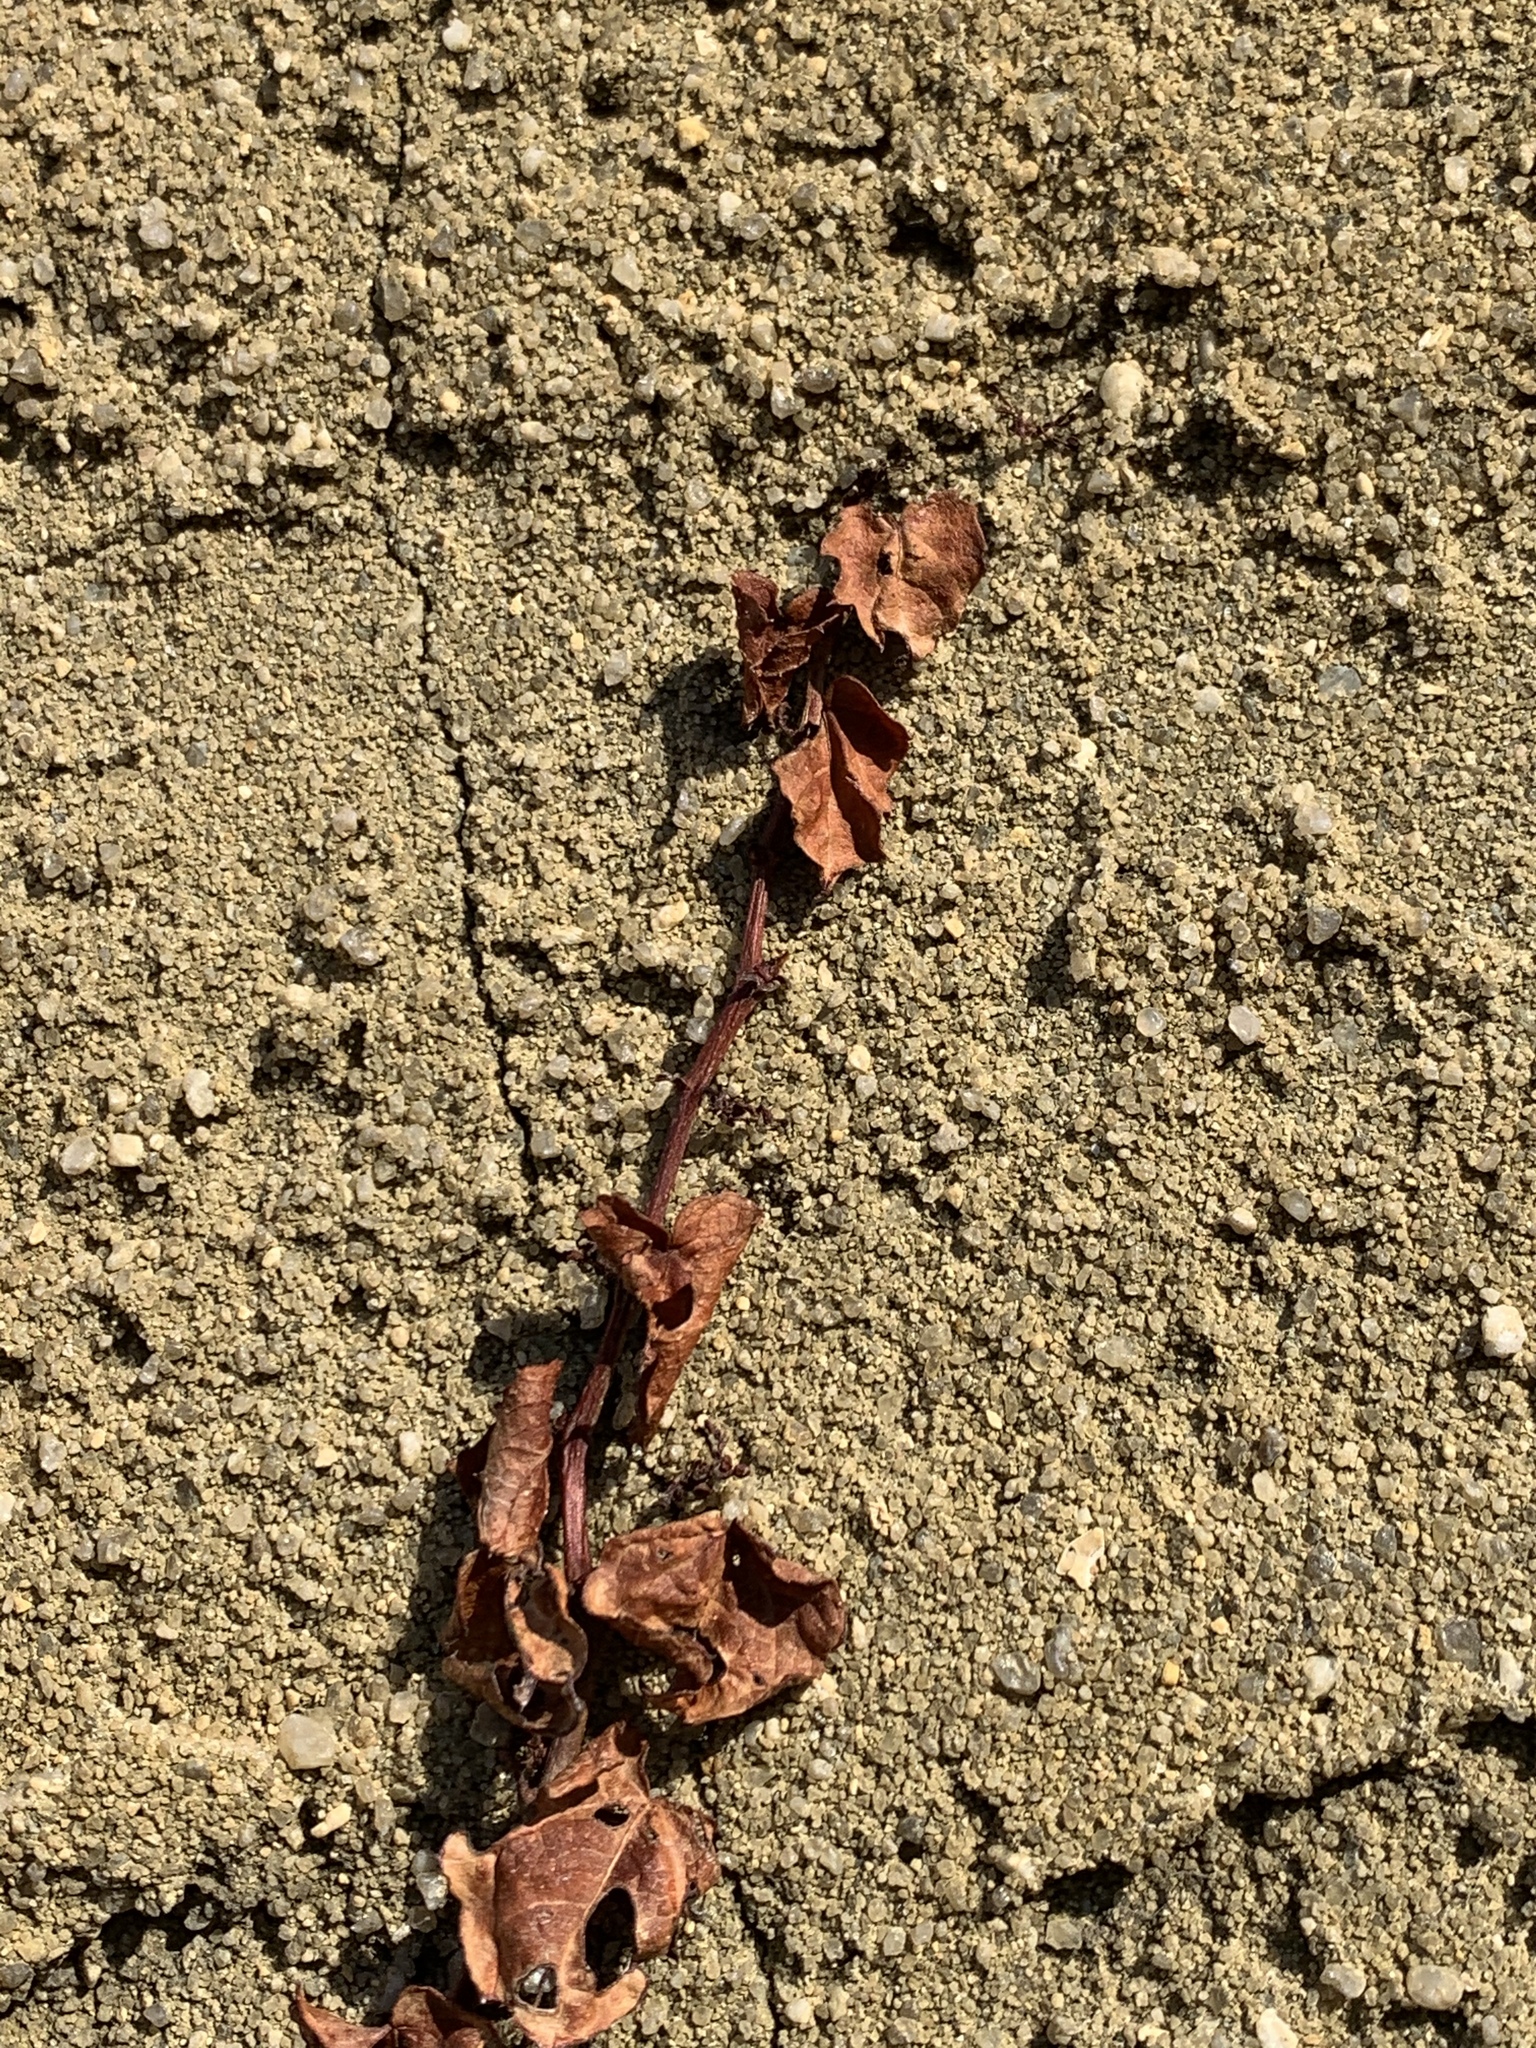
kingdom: Plantae
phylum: Tracheophyta
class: Magnoliopsida
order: Vitales
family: Vitaceae
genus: Parthenocissus
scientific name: Parthenocissus tricuspidata
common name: Boston ivy
